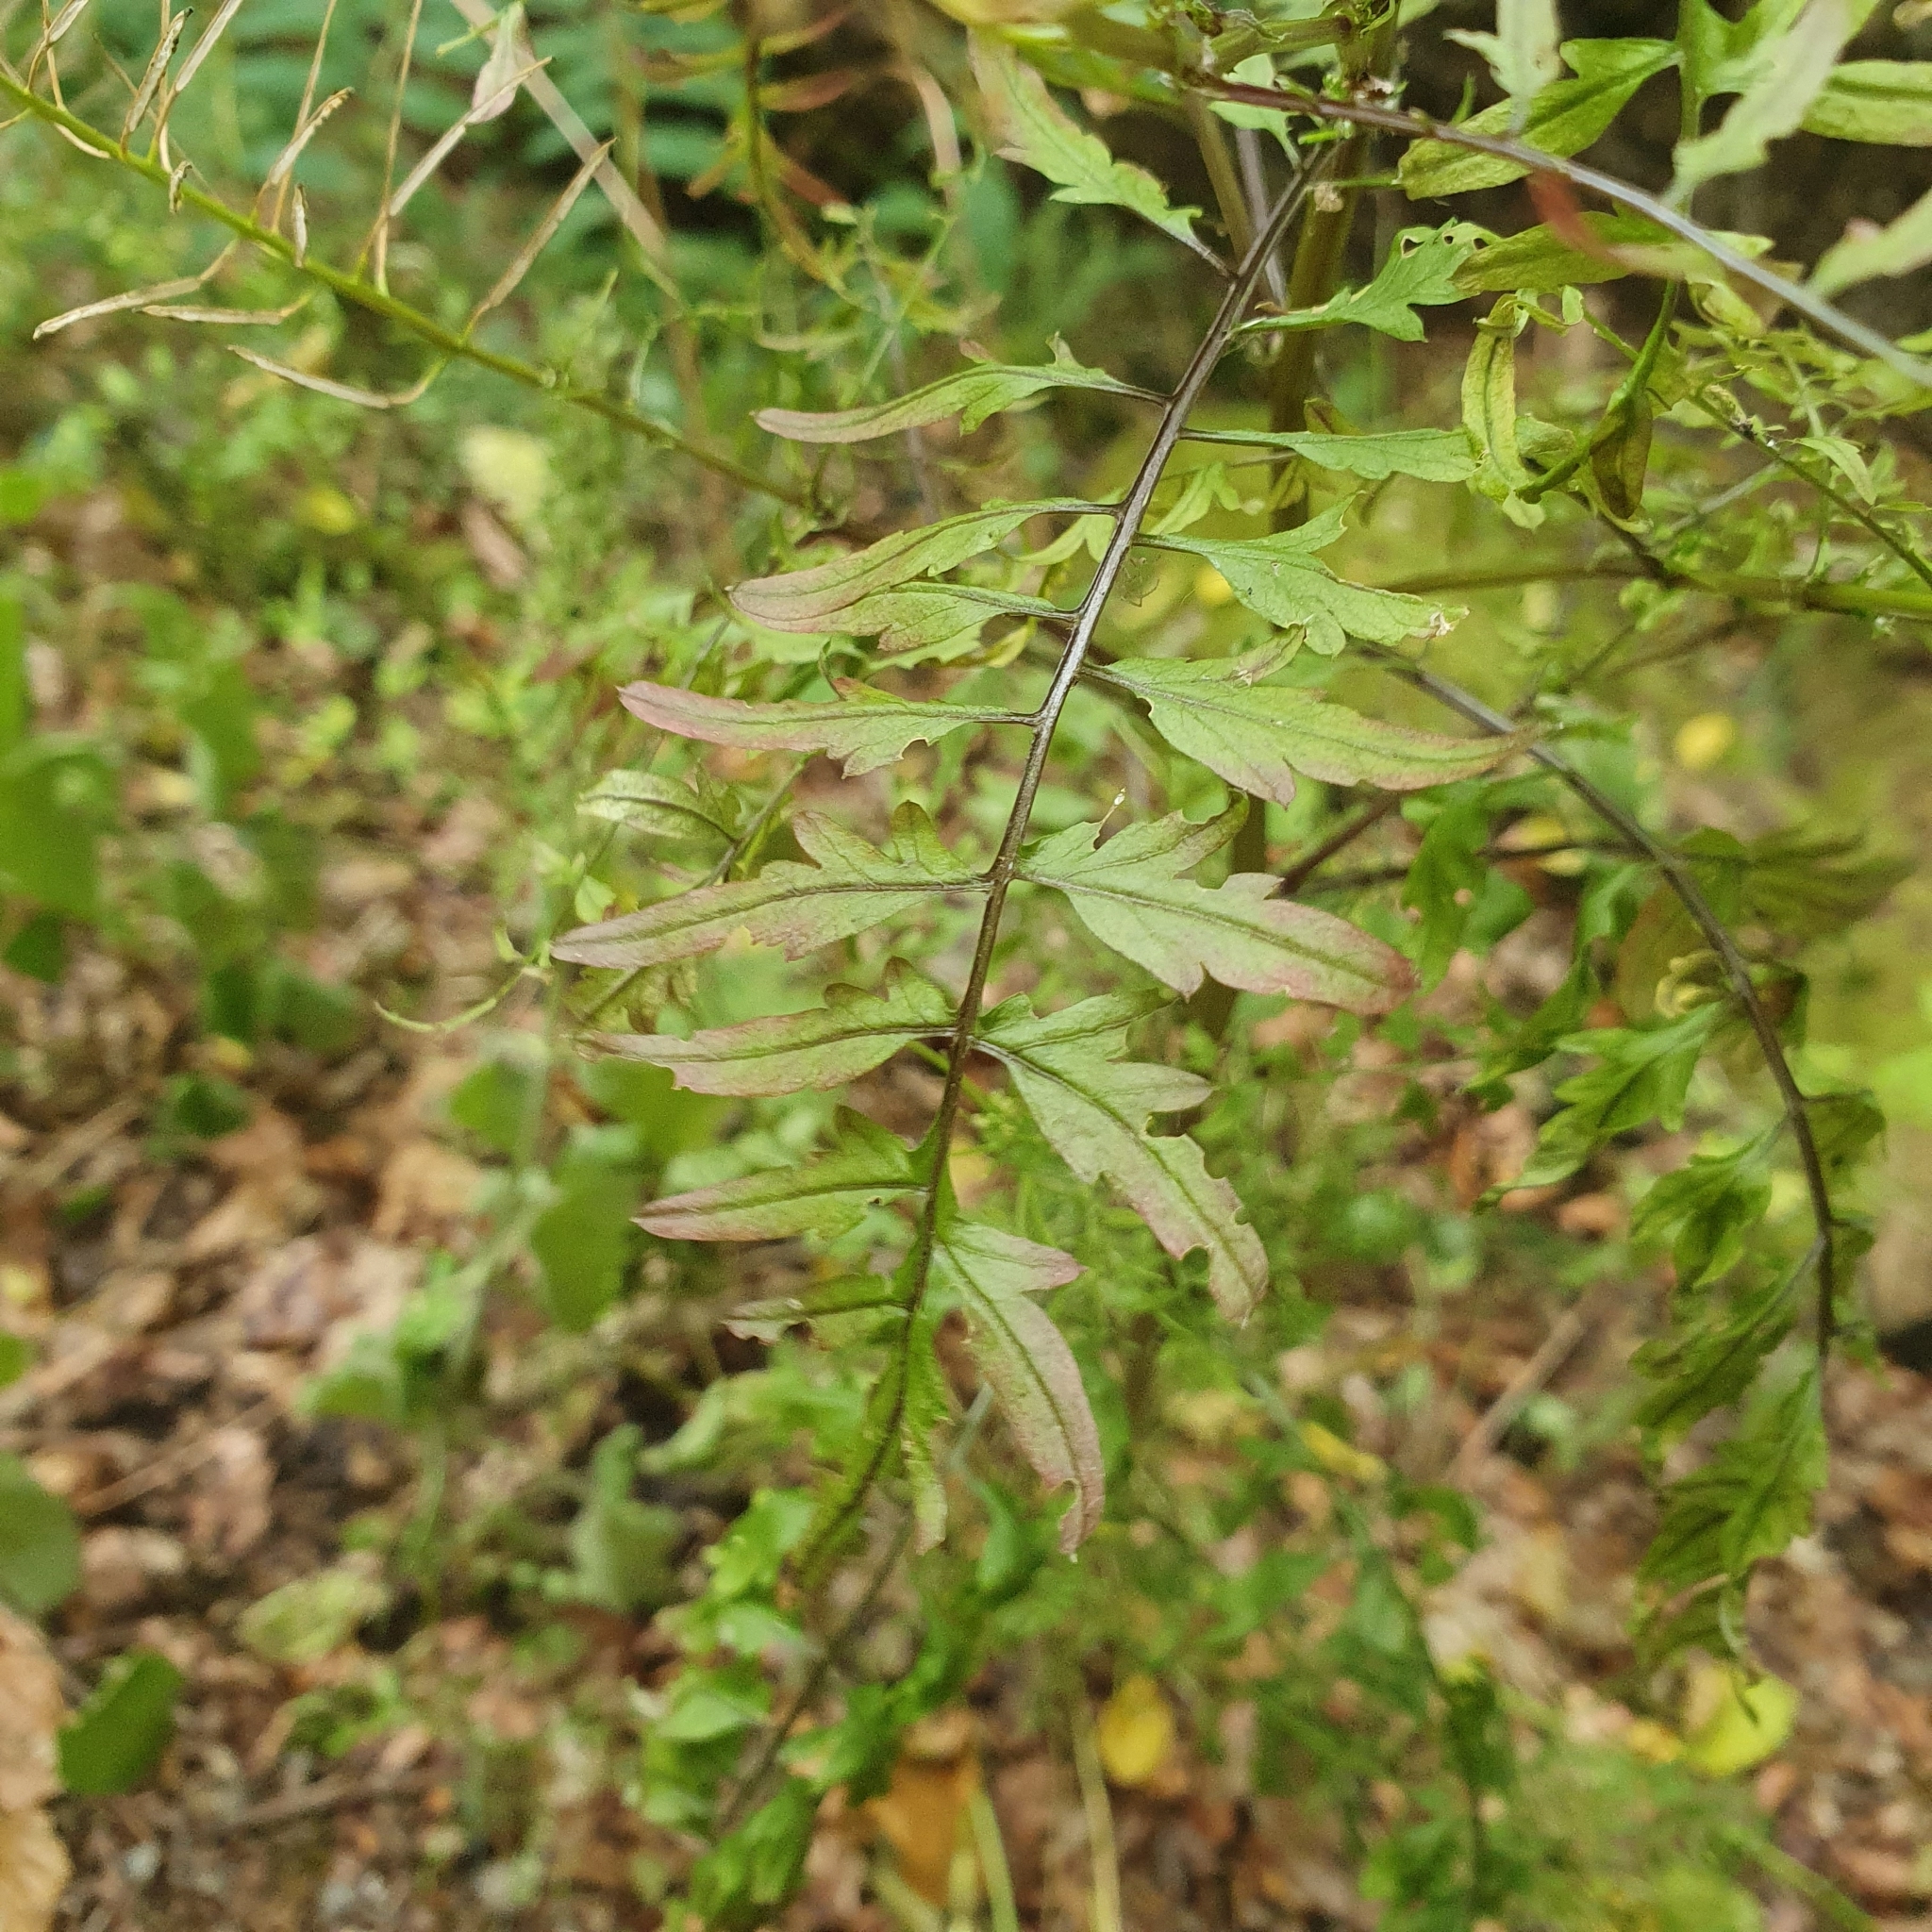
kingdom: Plantae
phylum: Tracheophyta
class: Magnoliopsida
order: Brassicales
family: Brassicaceae
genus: Cardamine
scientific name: Cardamine impatiens
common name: Narrow-leaved bitter-cress
